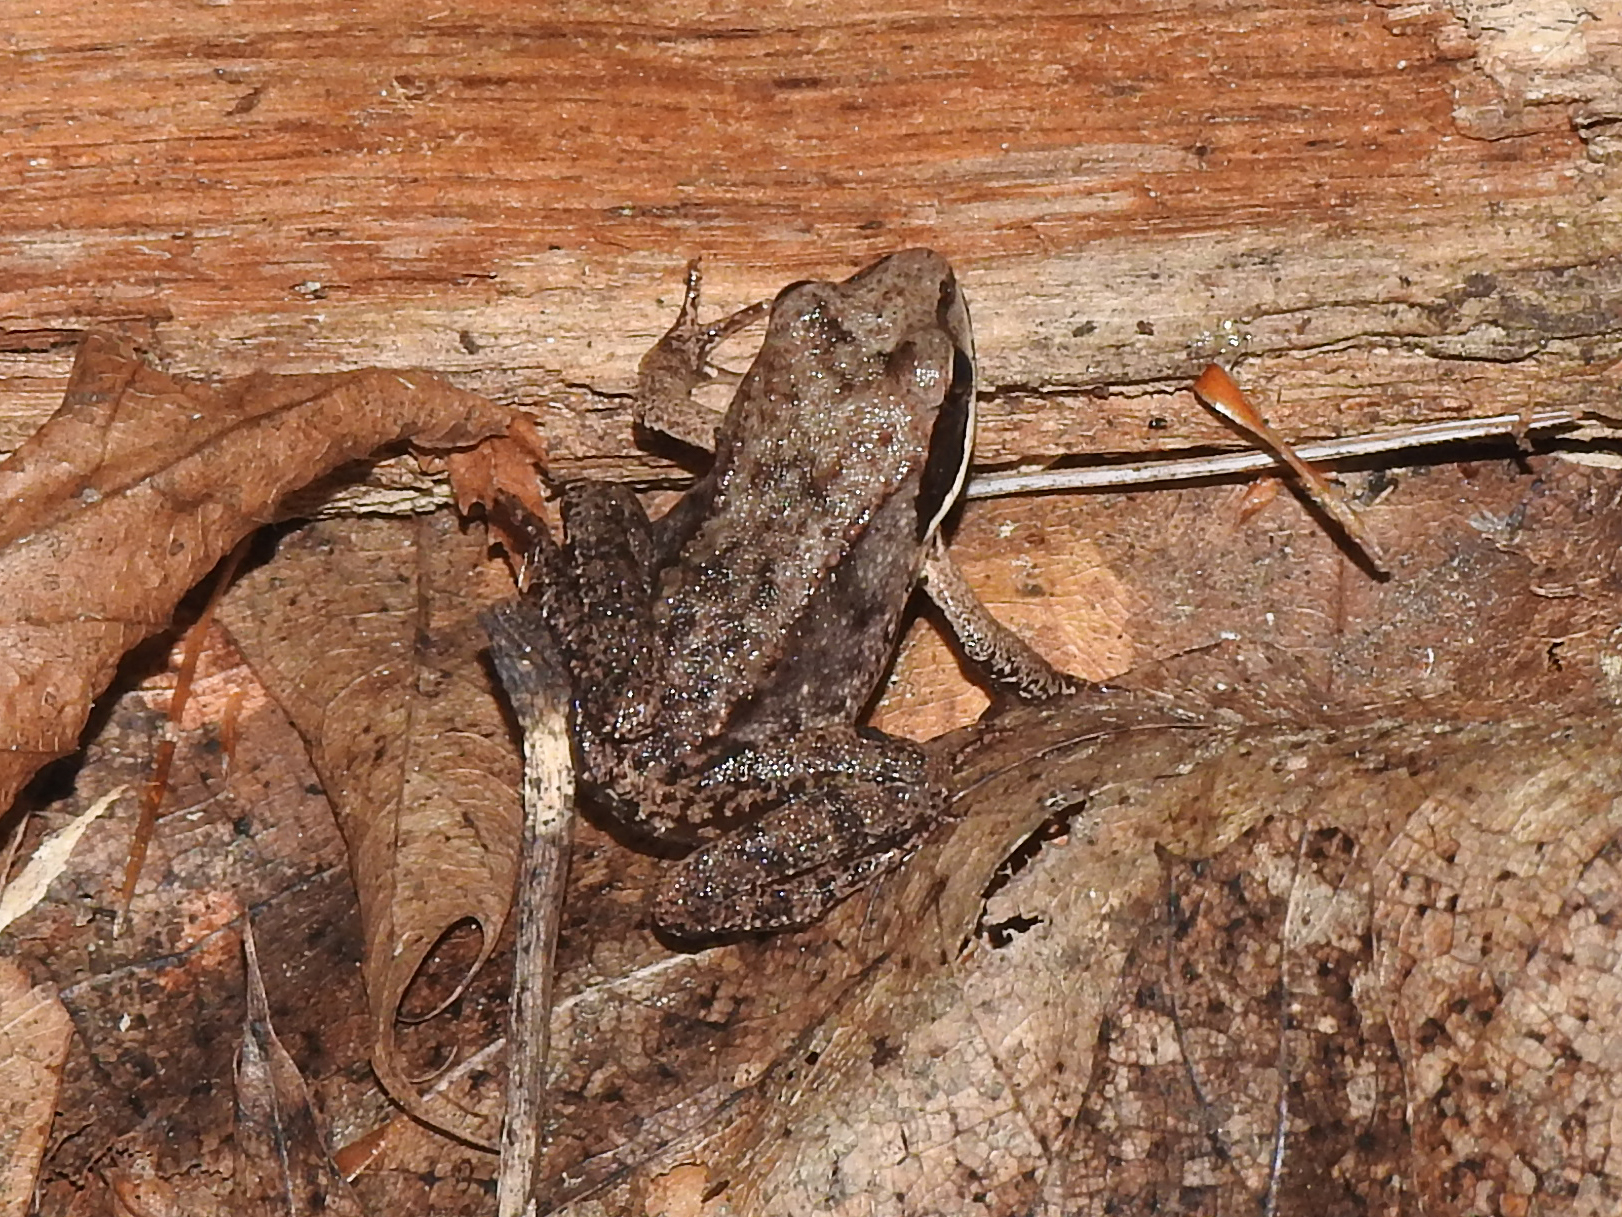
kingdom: Animalia
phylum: Chordata
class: Amphibia
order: Anura
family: Ranidae
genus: Lithobates
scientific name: Lithobates sylvaticus
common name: Wood frog
